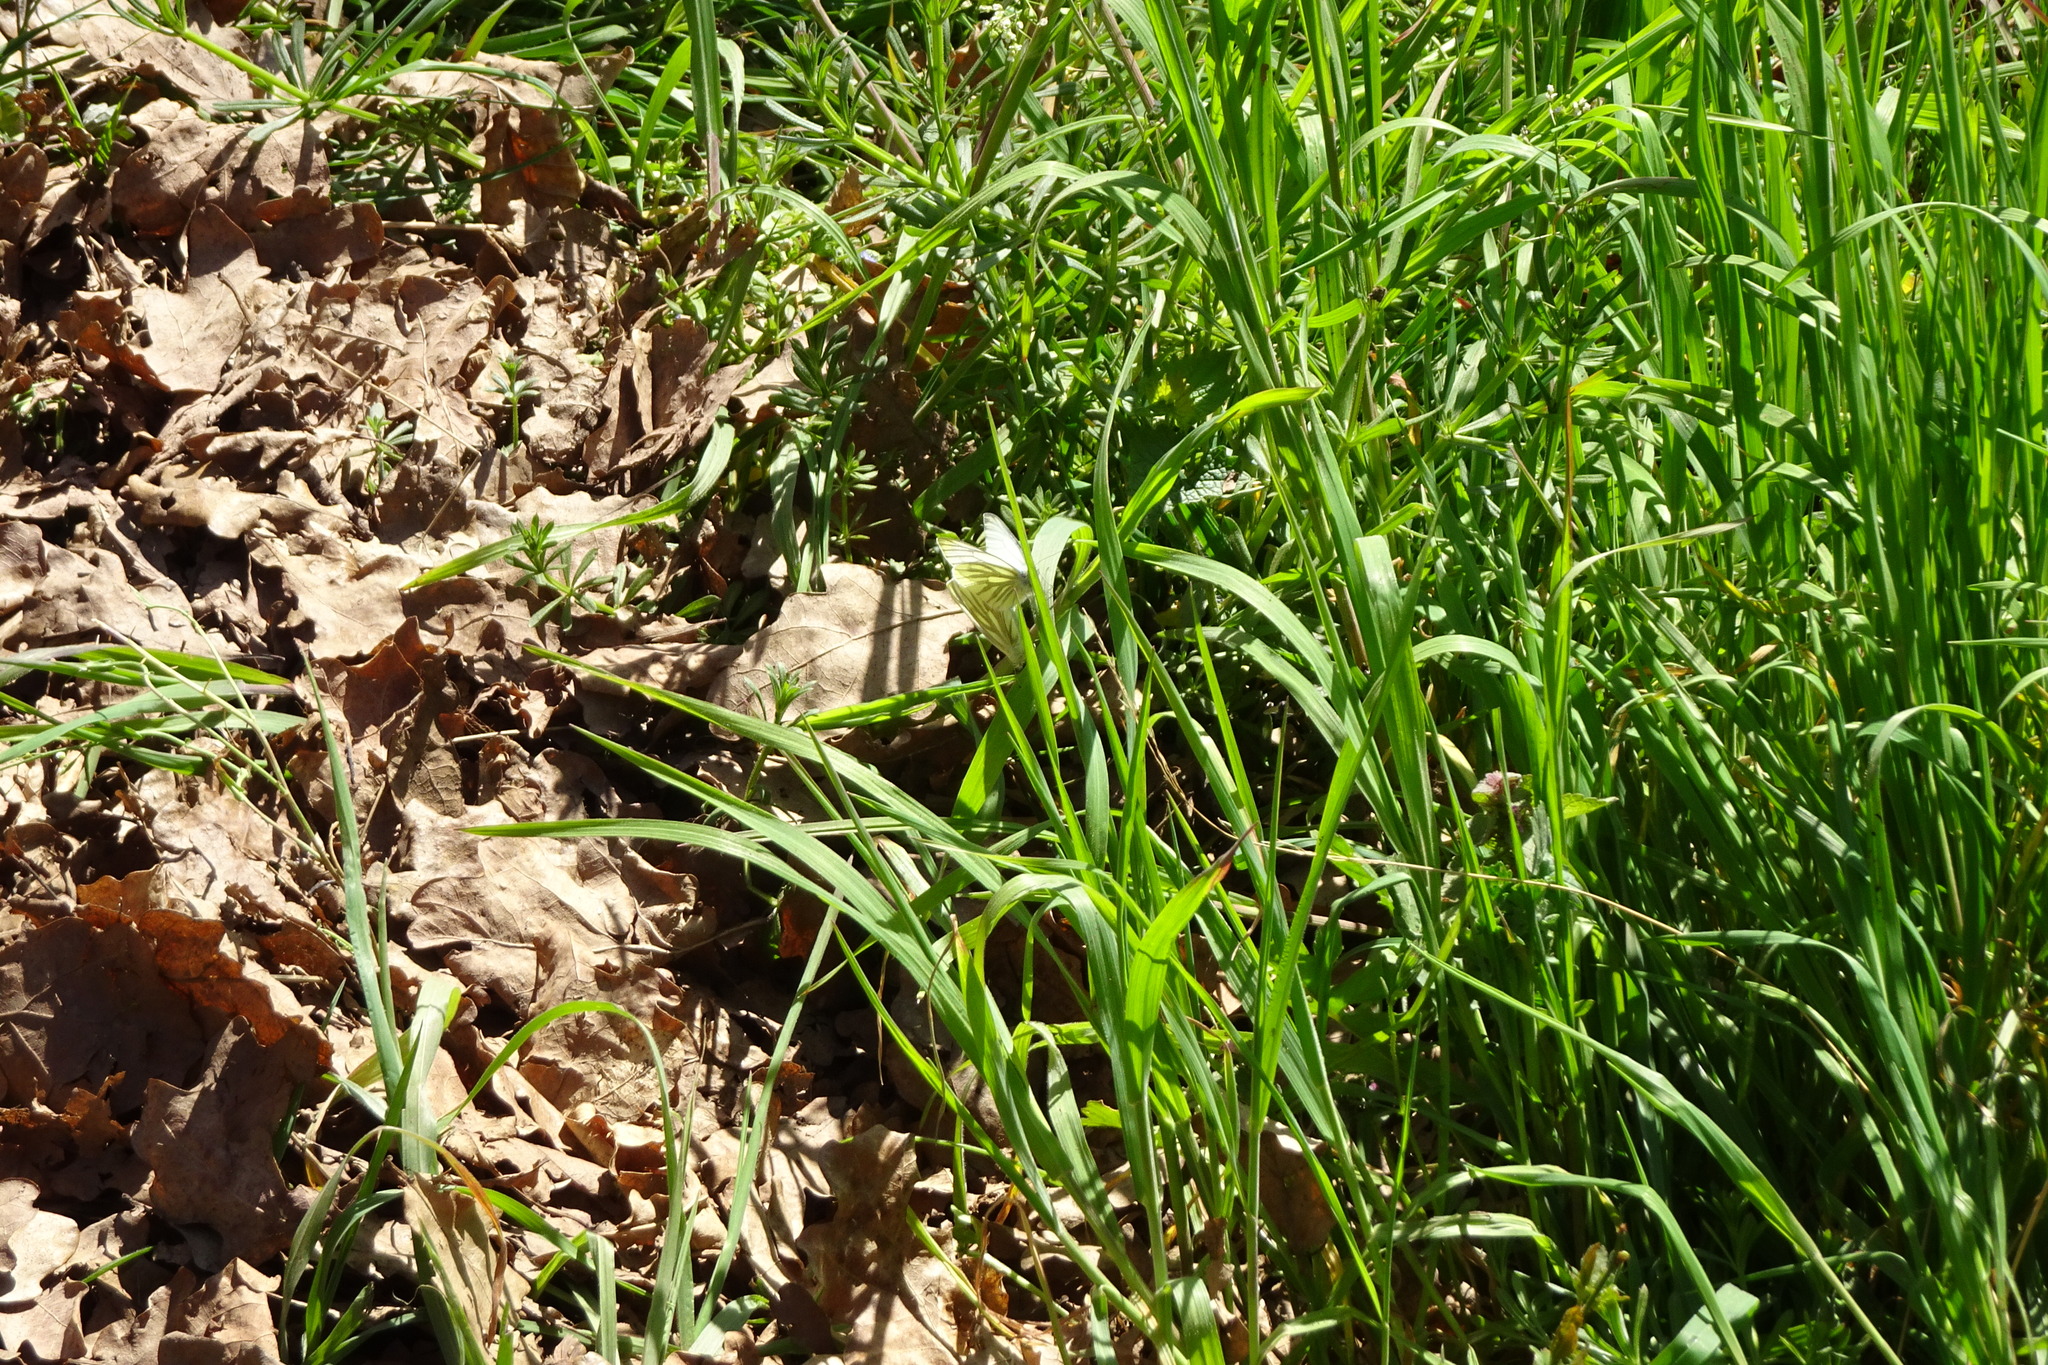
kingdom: Animalia
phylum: Arthropoda
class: Insecta
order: Lepidoptera
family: Pieridae
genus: Pieris
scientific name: Pieris napi
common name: Green-veined white
